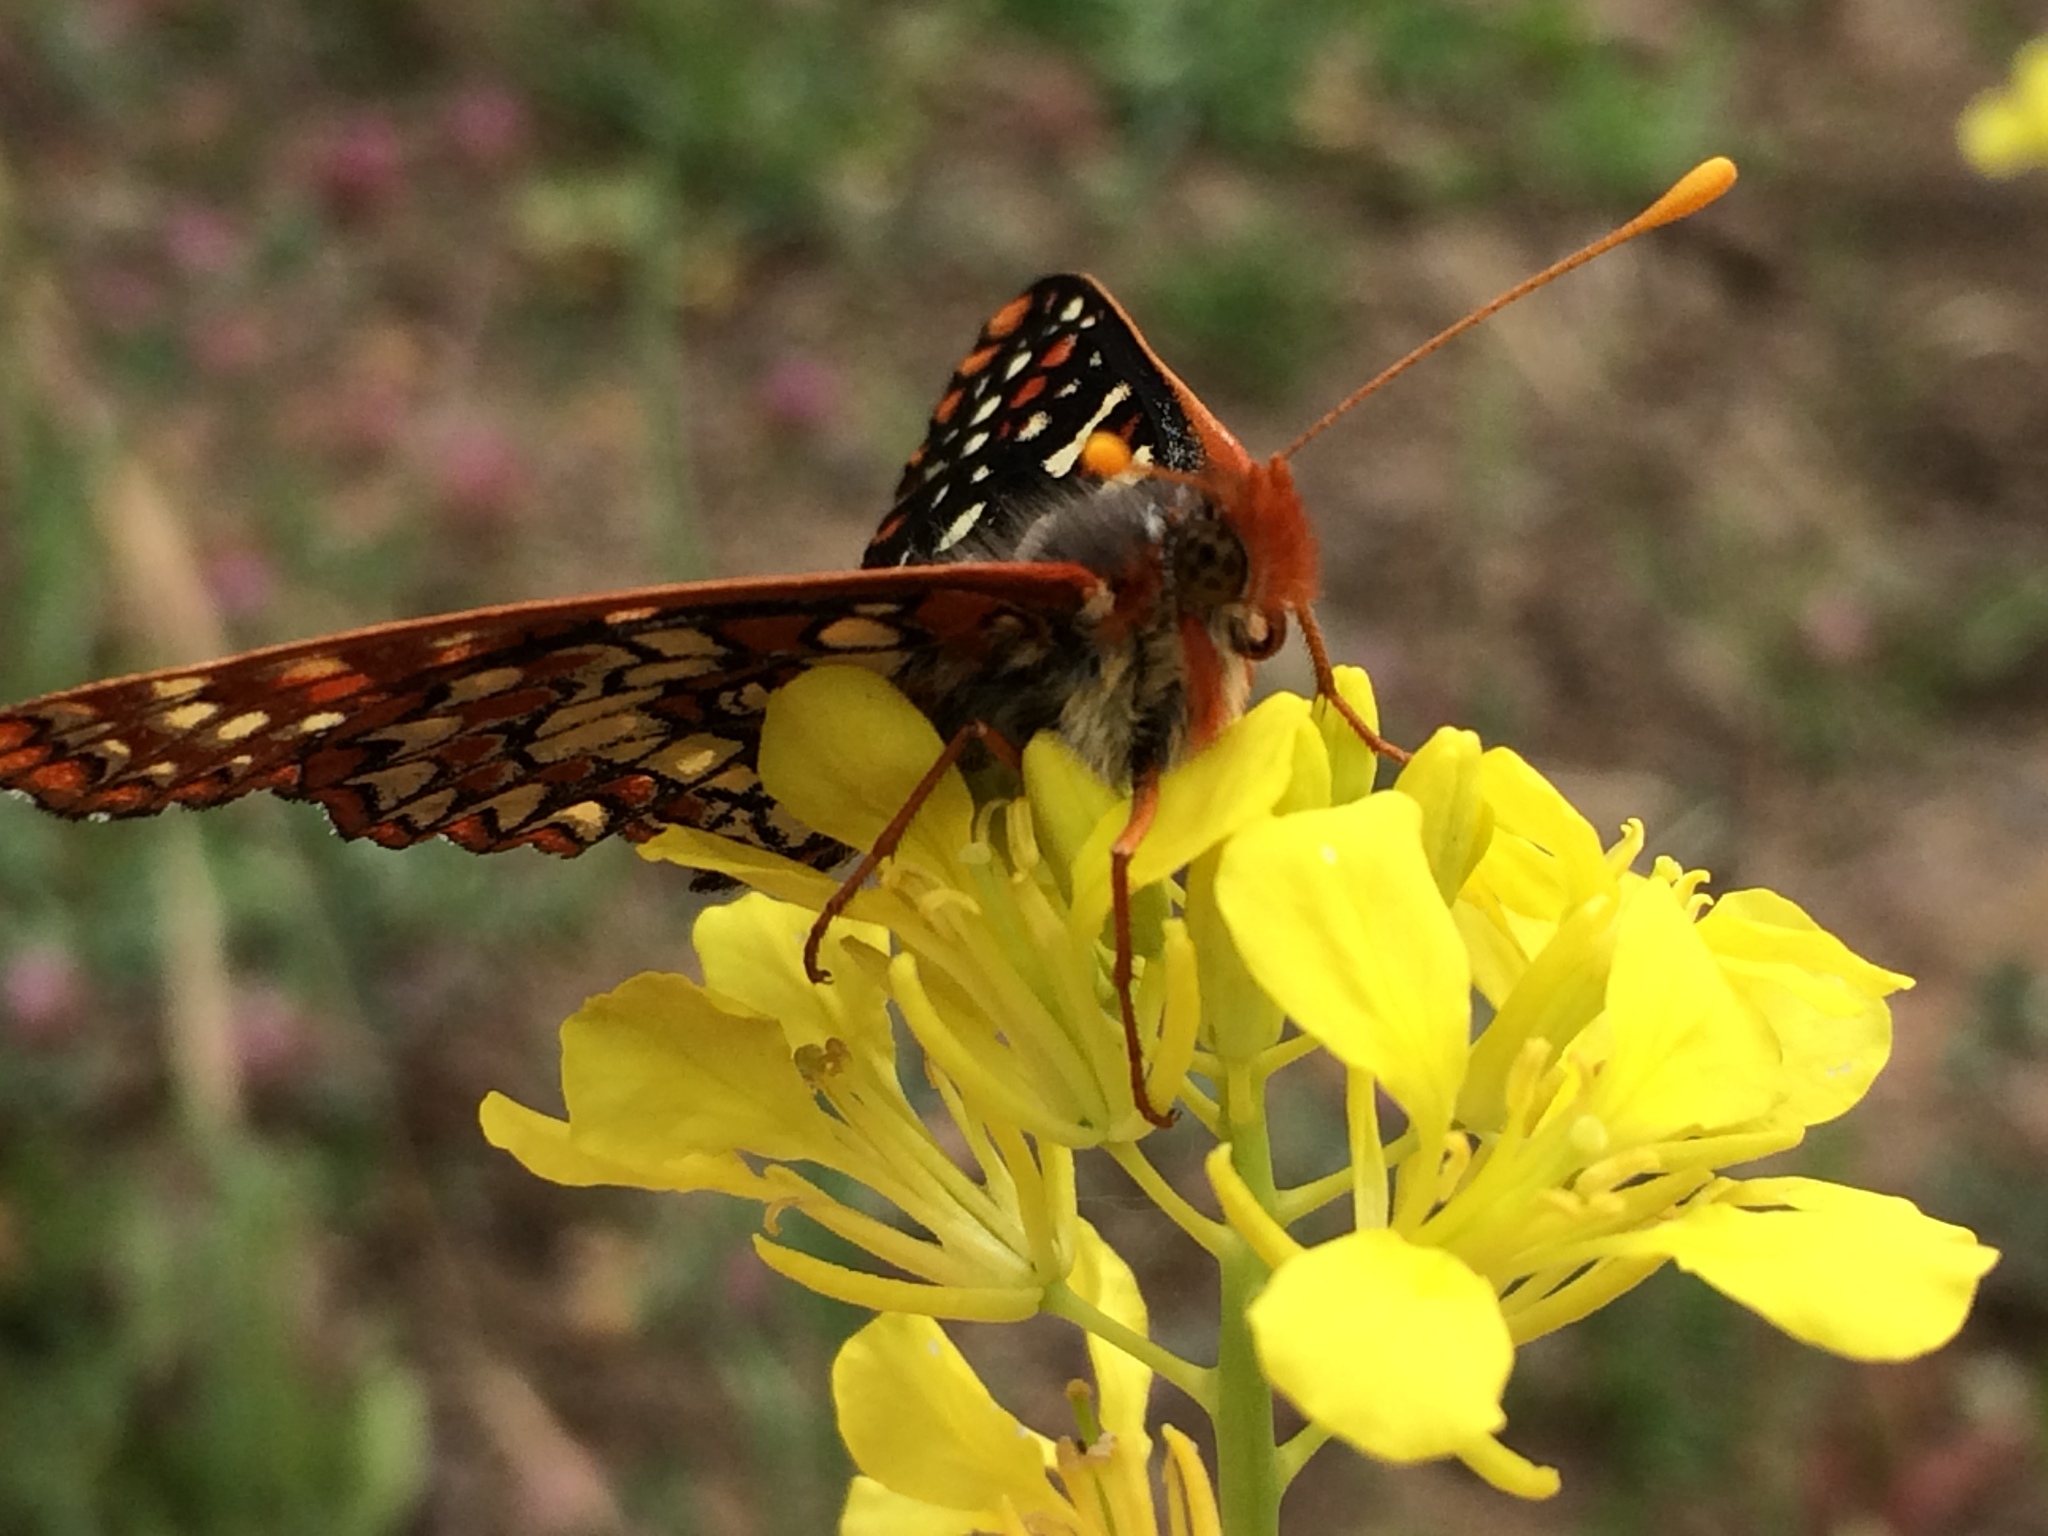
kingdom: Animalia
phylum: Arthropoda
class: Insecta
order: Lepidoptera
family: Nymphalidae
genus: Occidryas
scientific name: Occidryas chalcedona
